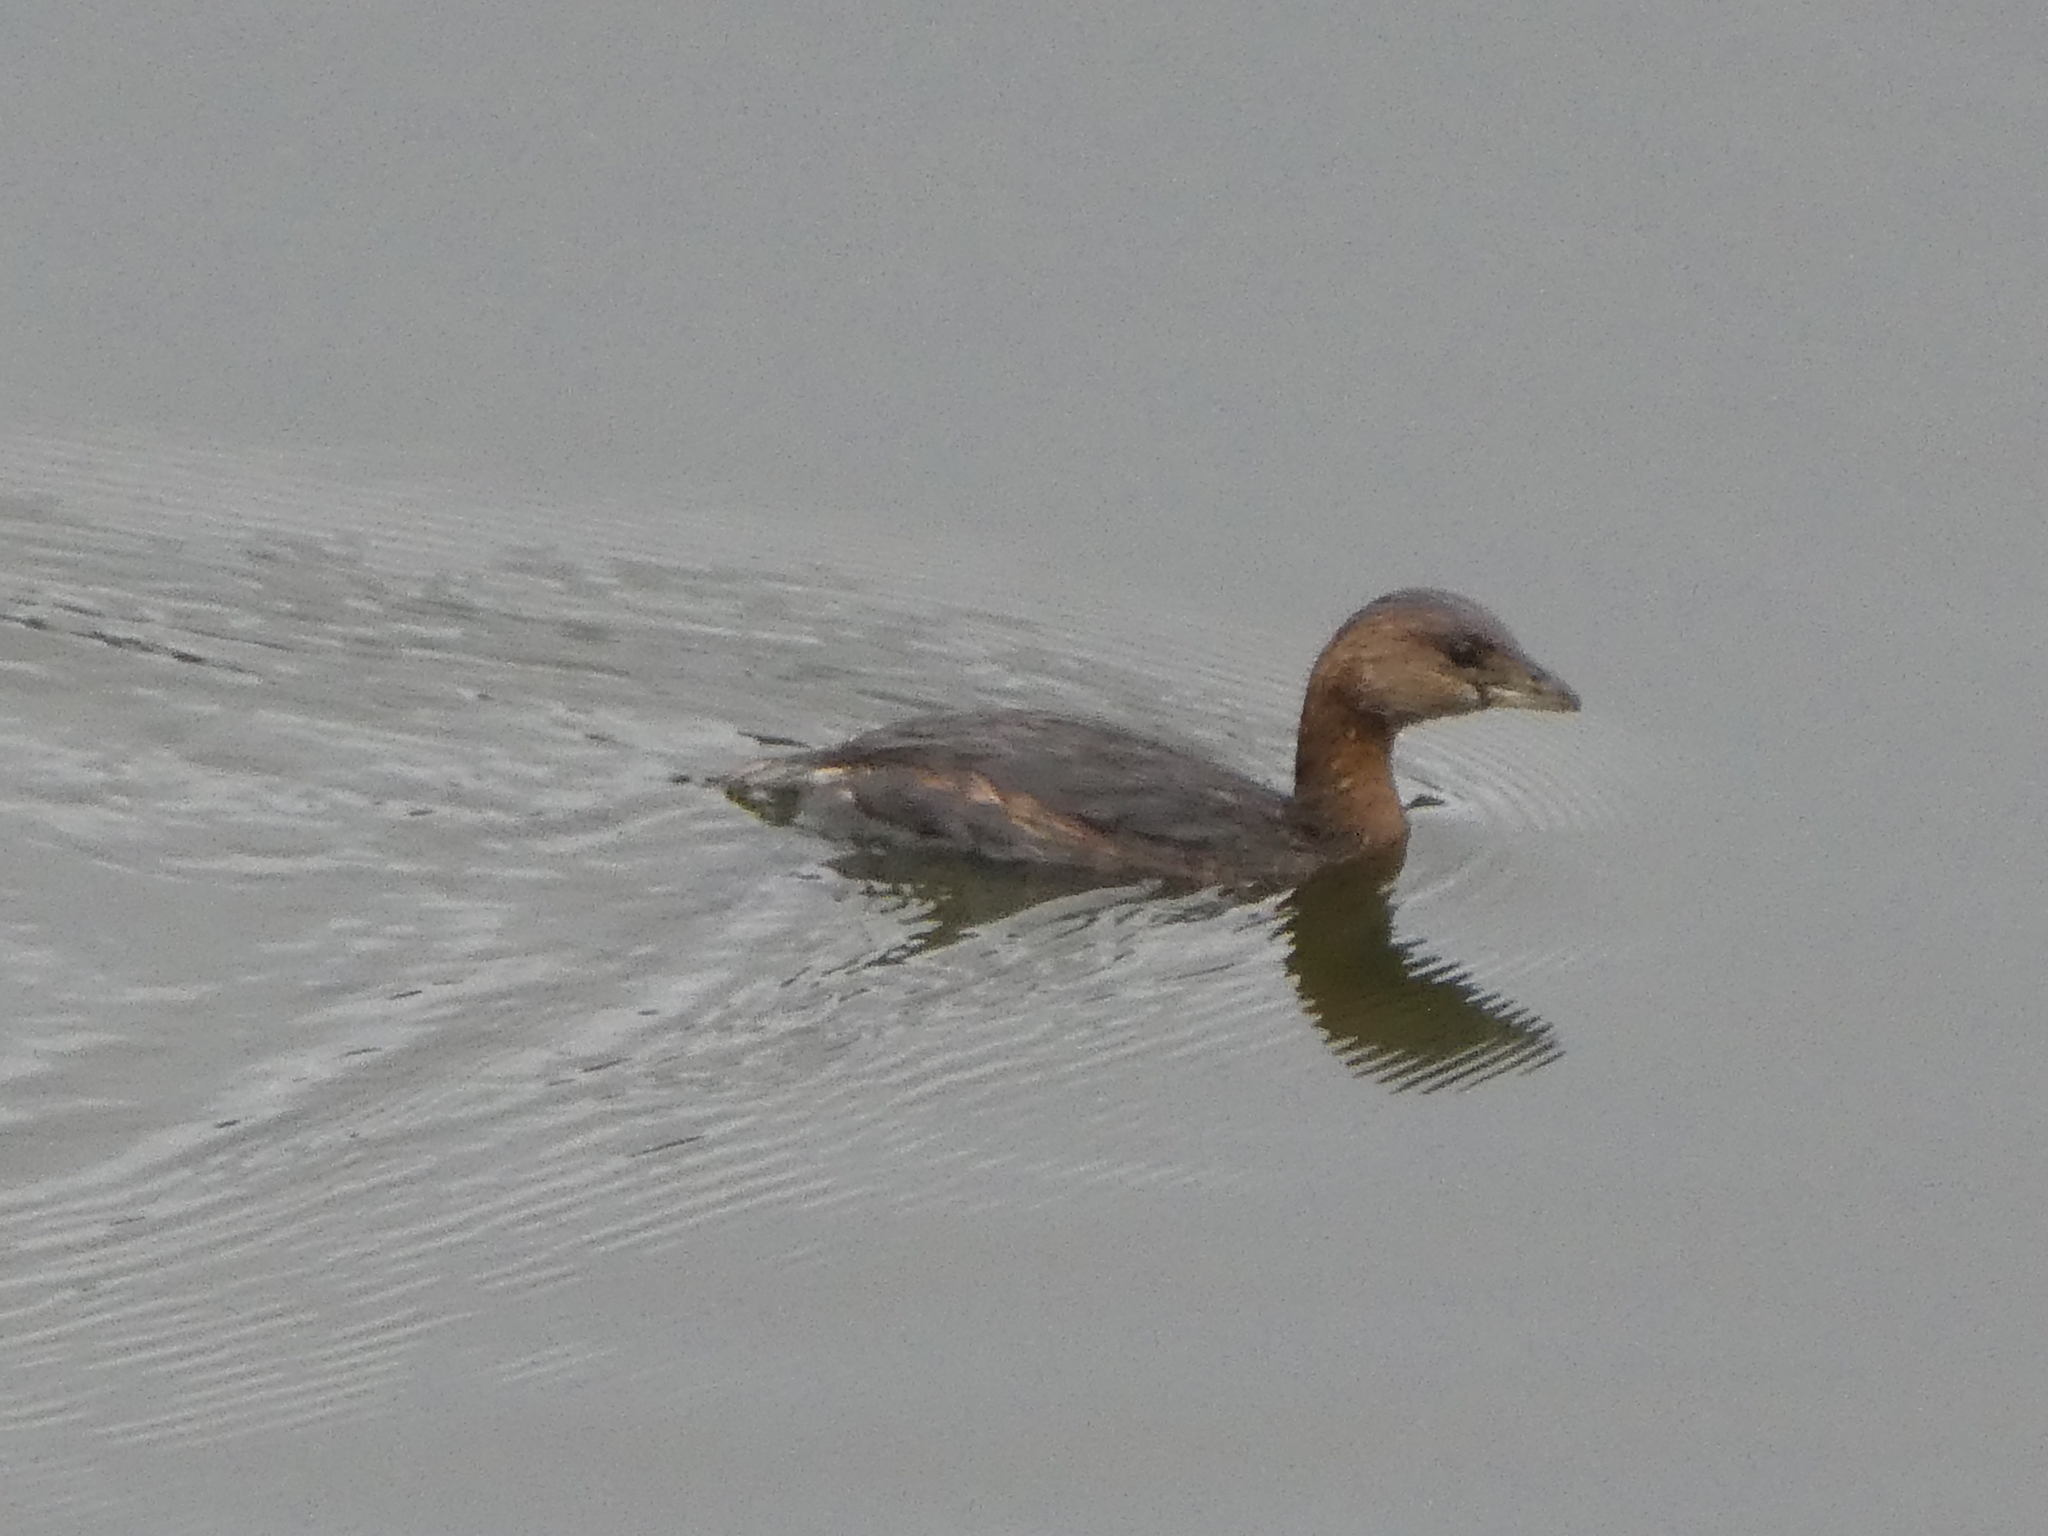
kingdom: Animalia
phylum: Chordata
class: Aves
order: Podicipediformes
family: Podicipedidae
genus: Podilymbus
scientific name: Podilymbus podiceps
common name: Pied-billed grebe
